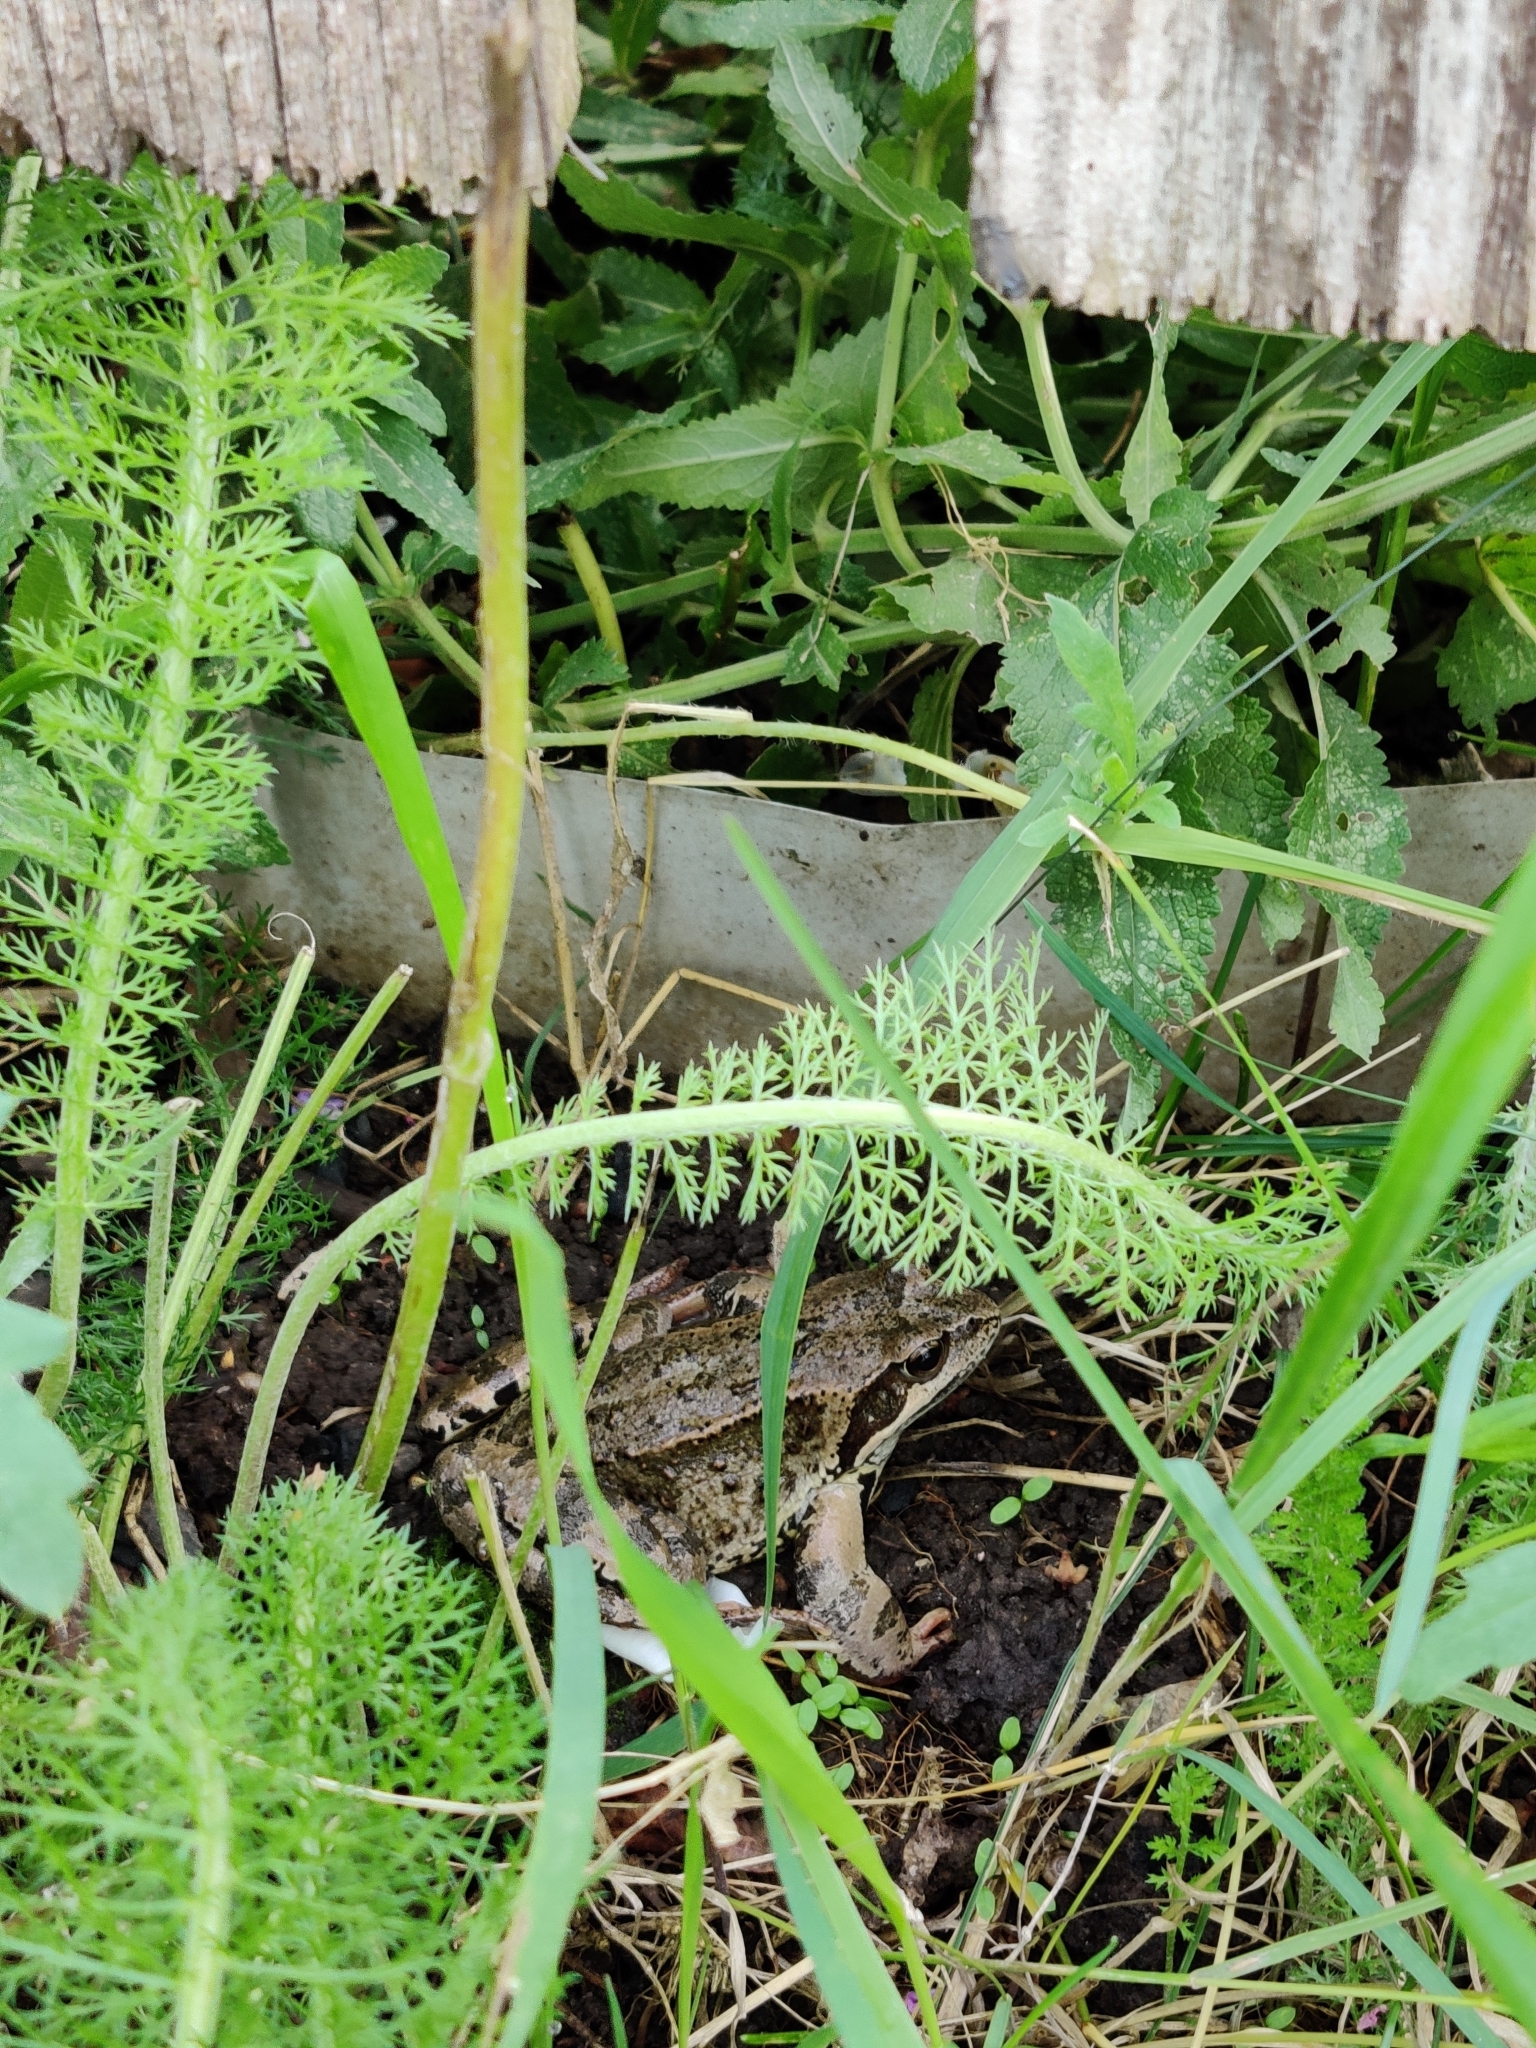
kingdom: Animalia
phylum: Chordata
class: Amphibia
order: Anura
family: Ranidae
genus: Rana
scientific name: Rana temporaria
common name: Common frog
